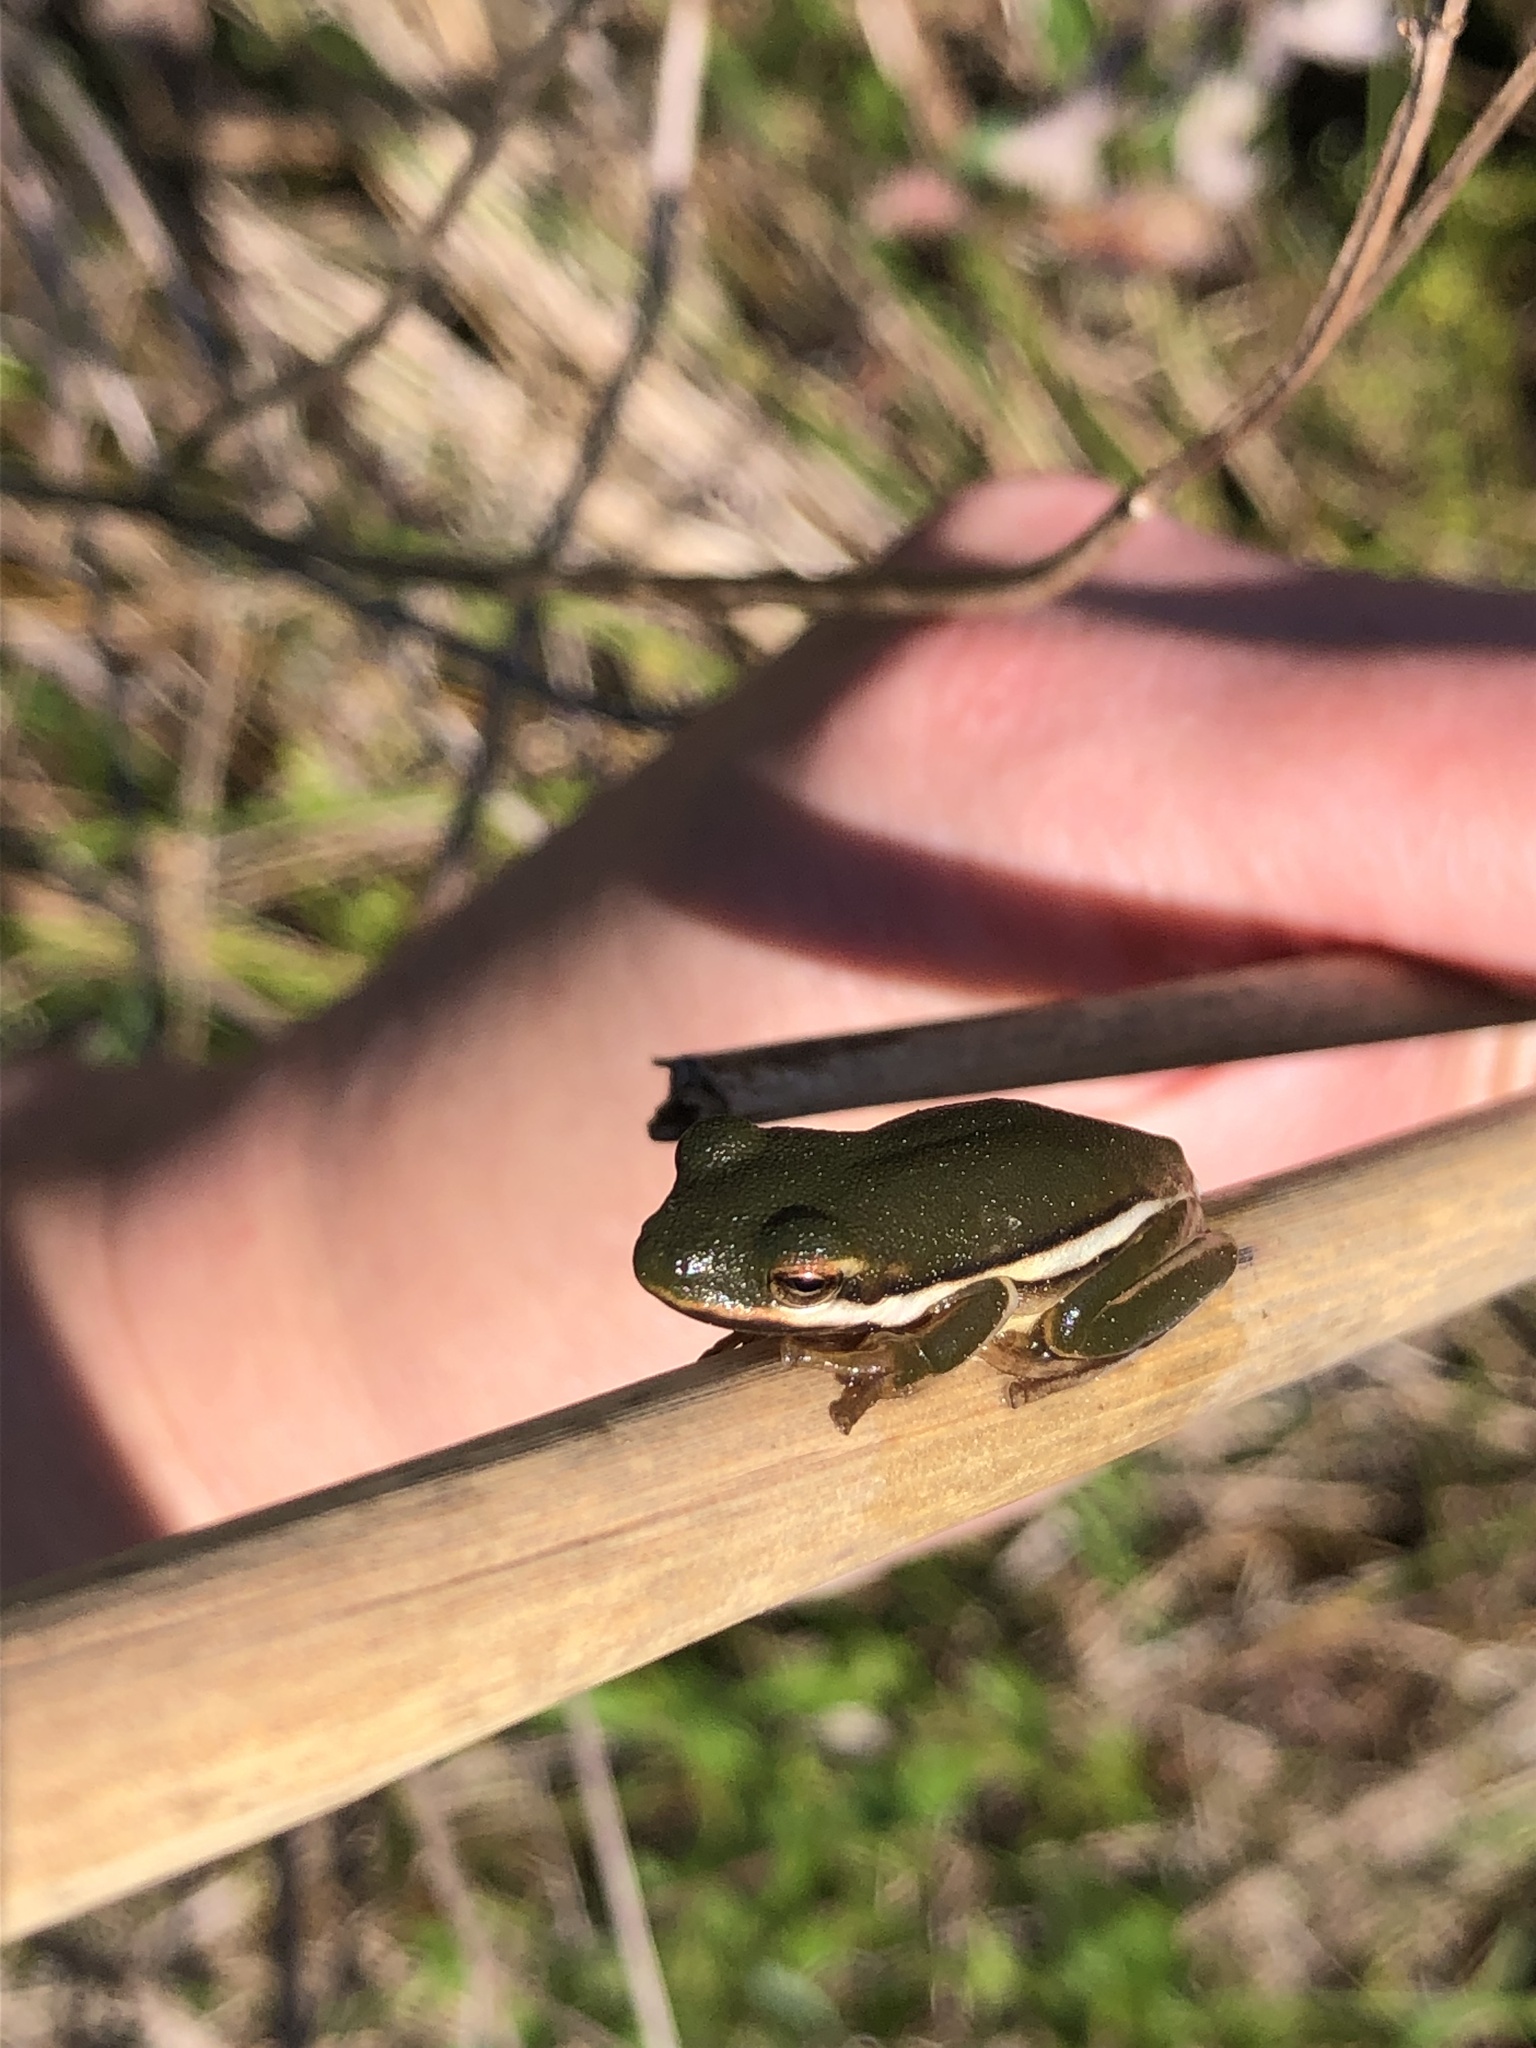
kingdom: Animalia
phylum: Chordata
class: Amphibia
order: Anura
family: Hylidae
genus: Dryophytes
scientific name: Dryophytes cinereus
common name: Green treefrog
